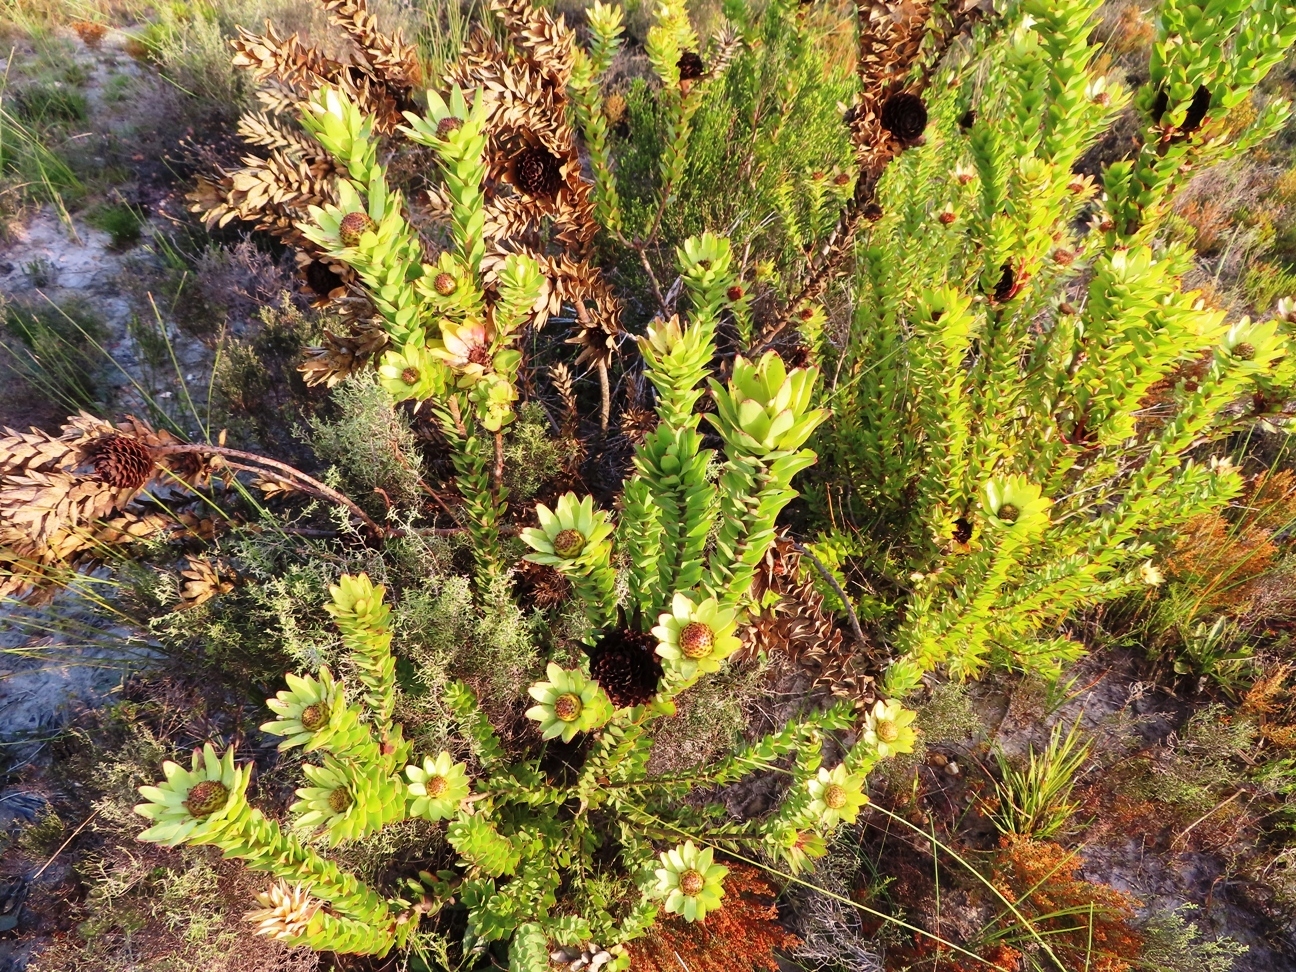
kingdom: Plantae
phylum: Tracheophyta
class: Magnoliopsida
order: Proteales
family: Proteaceae
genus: Leucadendron
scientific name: Leucadendron elimense
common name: Elim conebush
